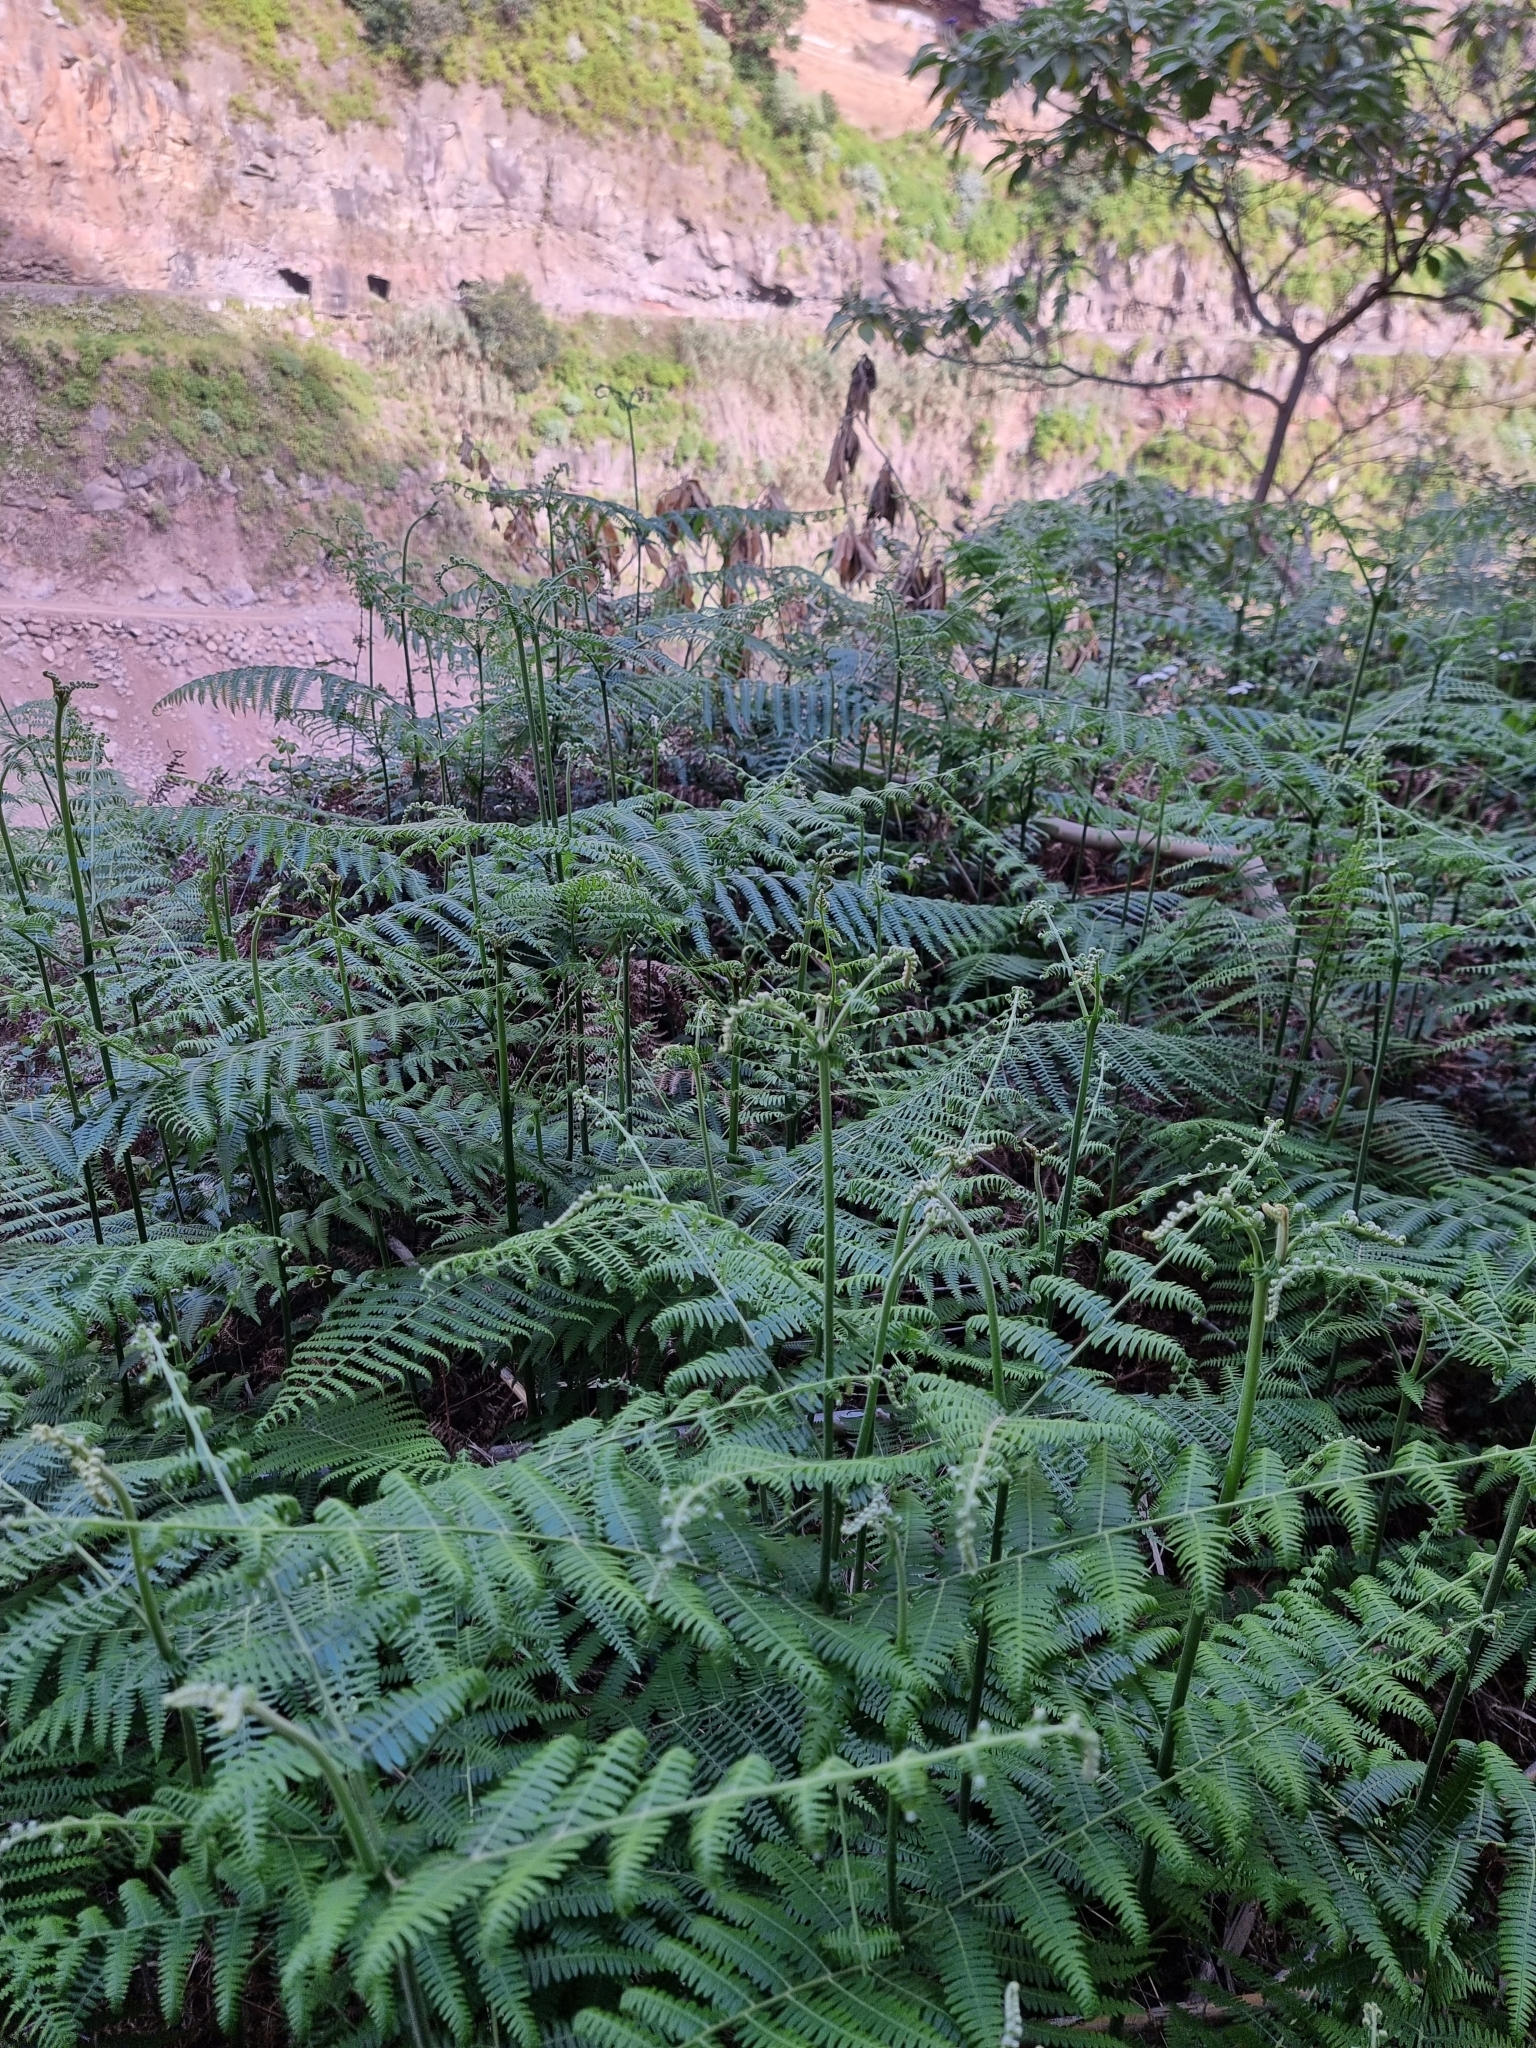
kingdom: Plantae
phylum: Tracheophyta
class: Polypodiopsida
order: Polypodiales
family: Dennstaedtiaceae
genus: Pteridium
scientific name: Pteridium aquilinum
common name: Bracken
